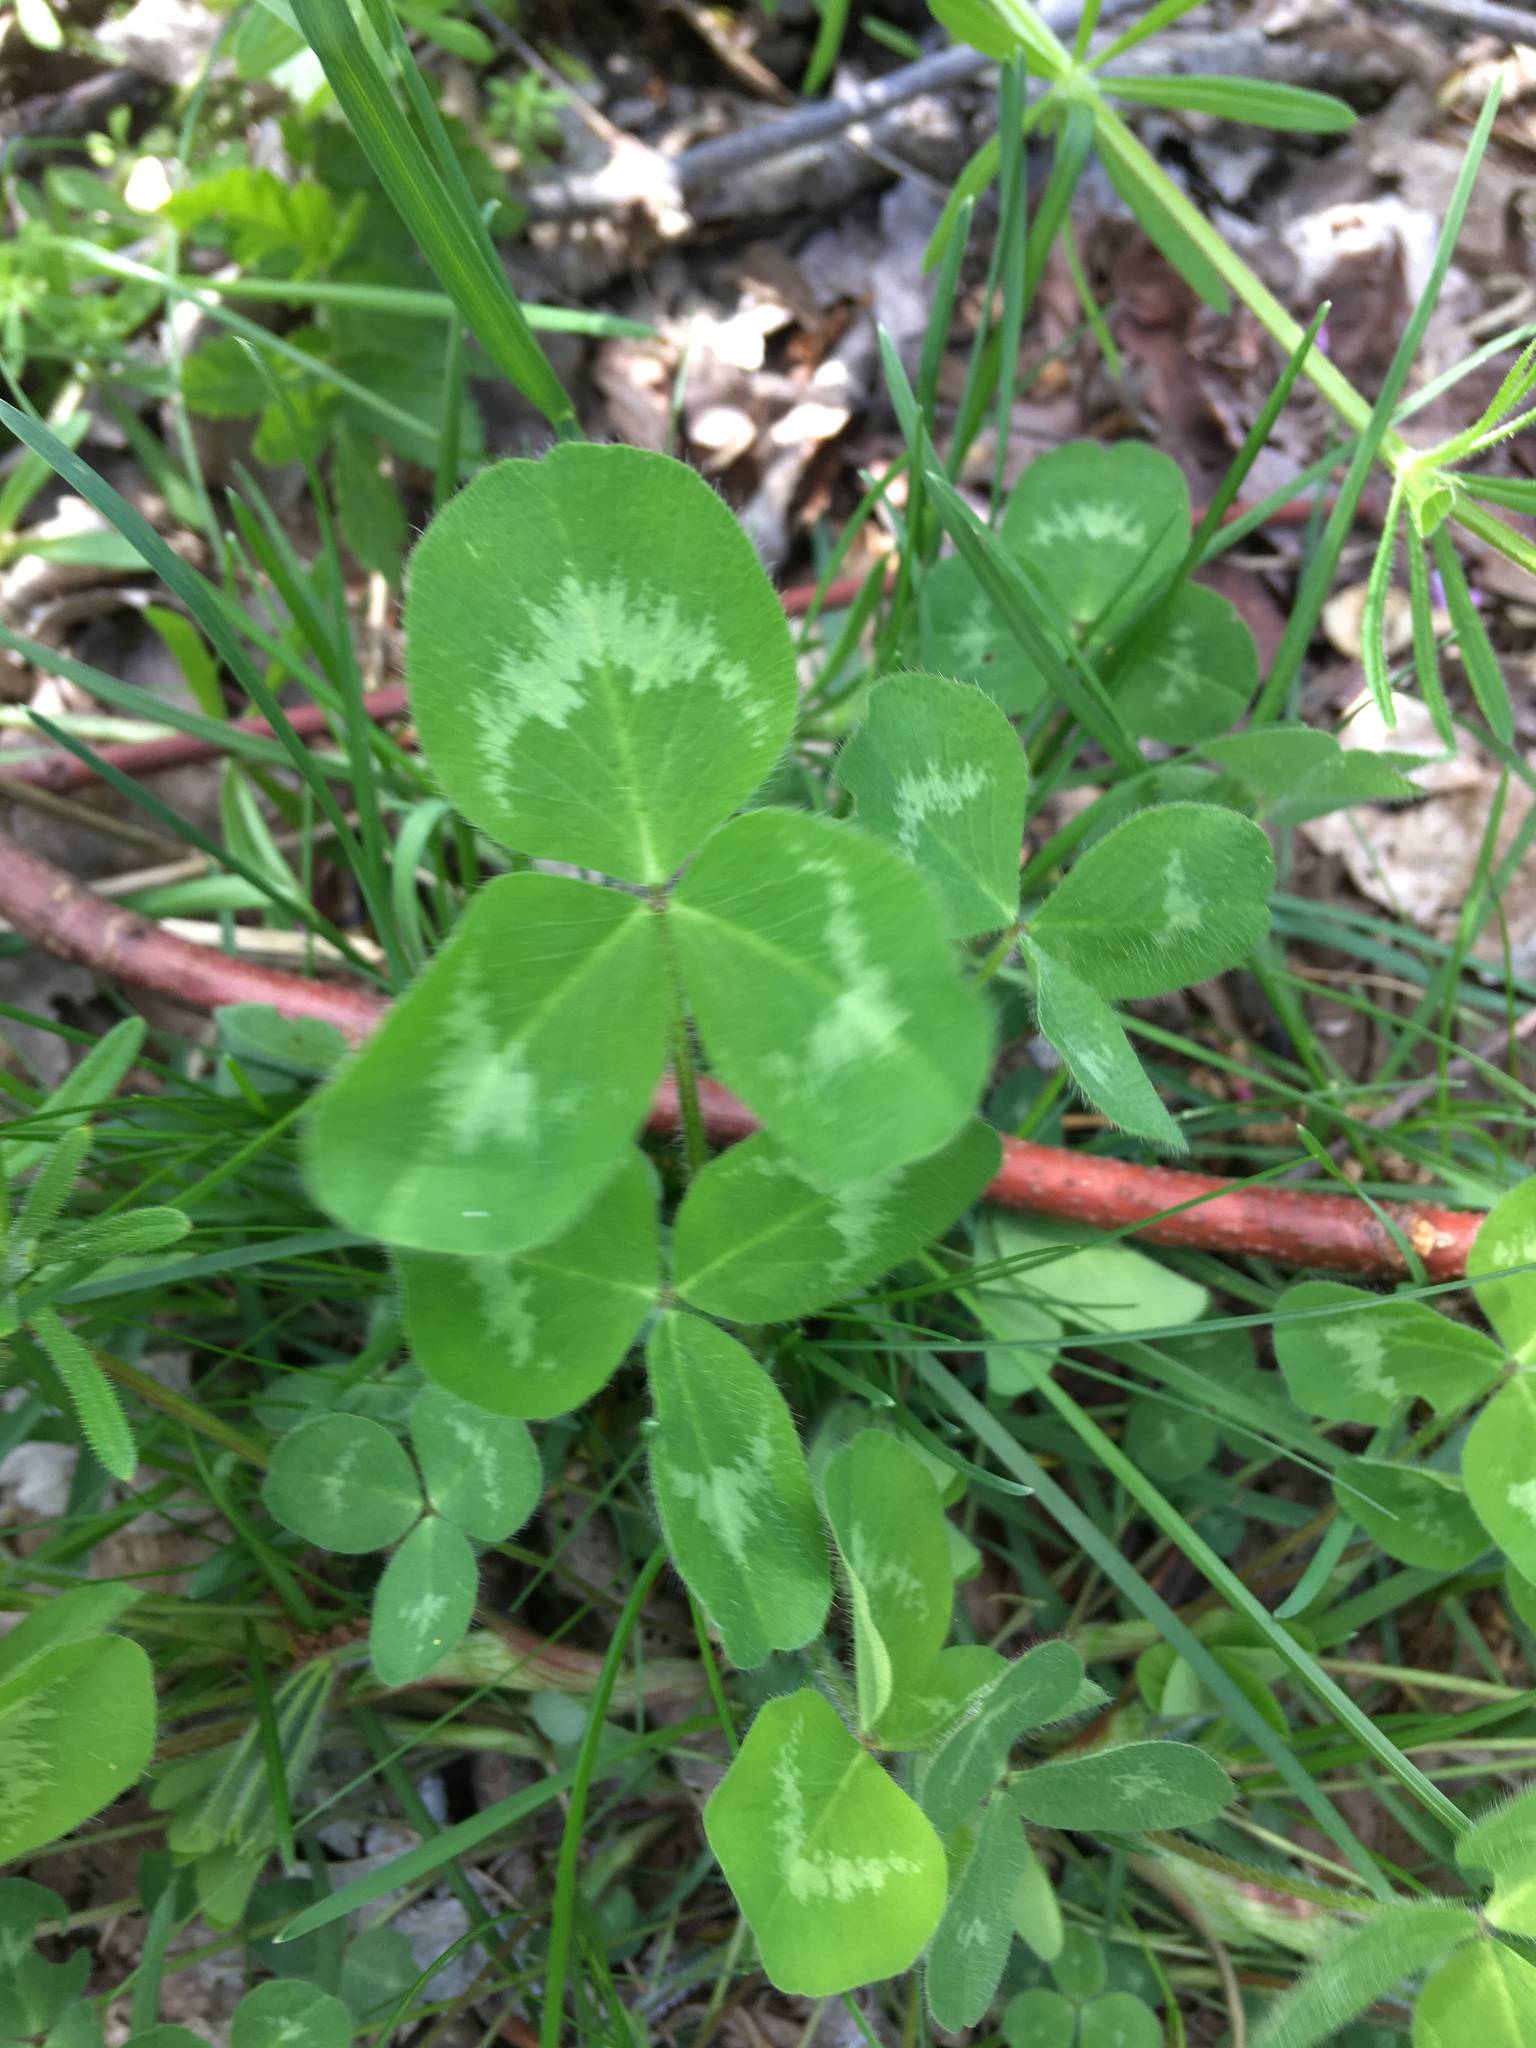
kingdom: Plantae
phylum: Tracheophyta
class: Magnoliopsida
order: Fabales
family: Fabaceae
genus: Trifolium
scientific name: Trifolium pratense
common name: Red clover
